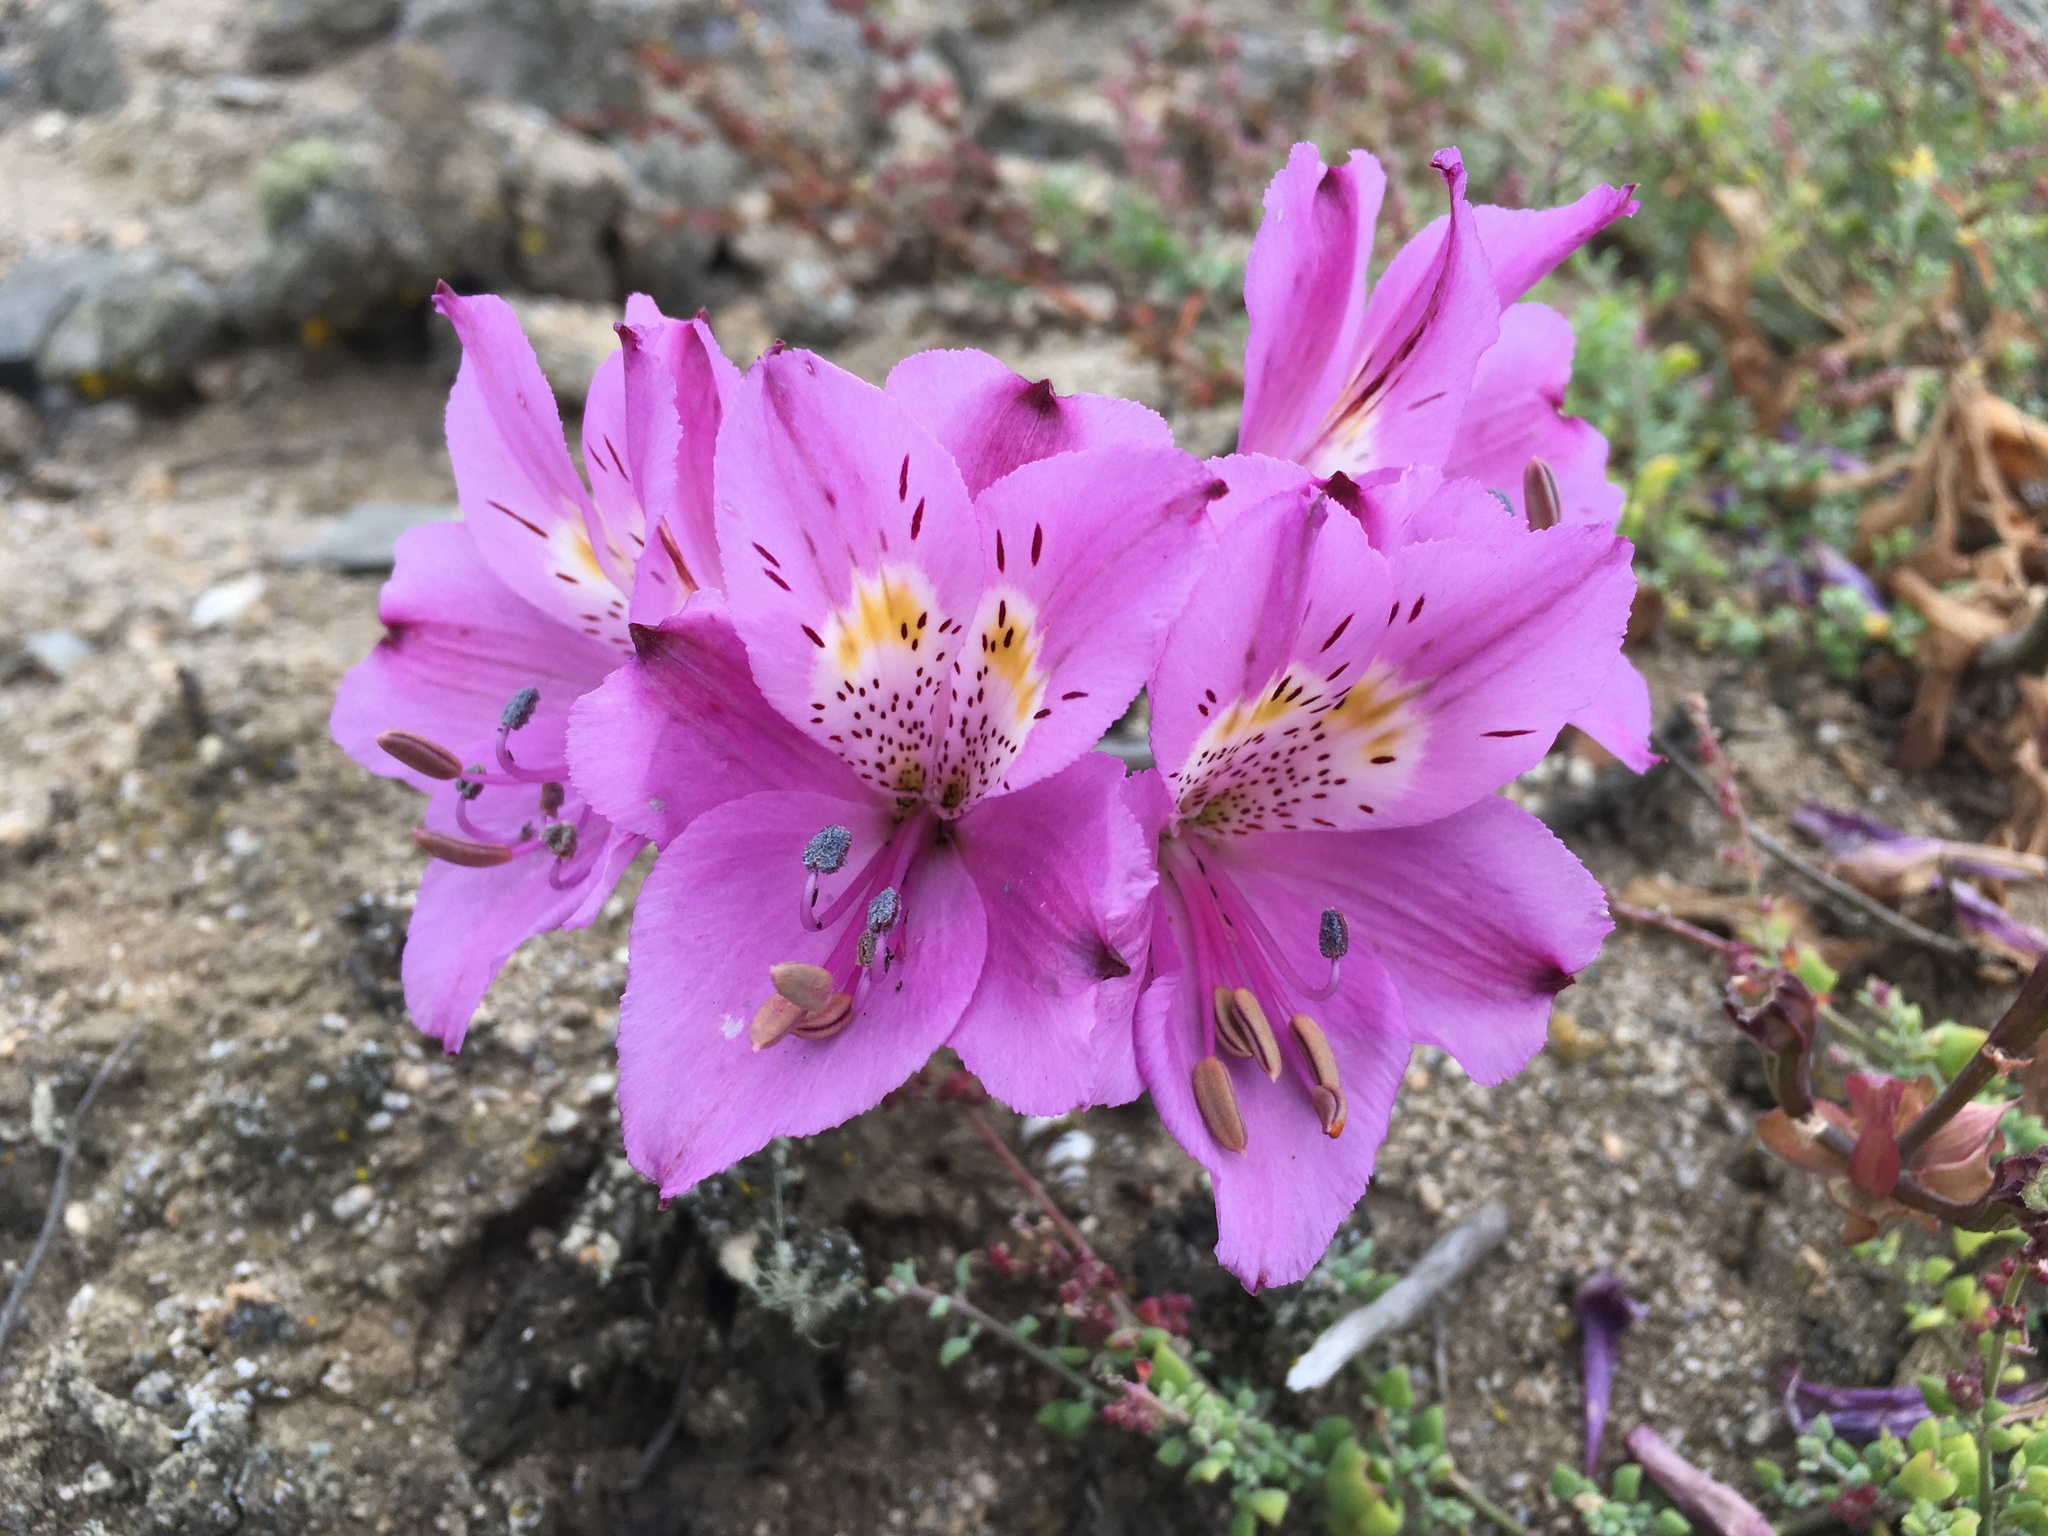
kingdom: Plantae
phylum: Tracheophyta
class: Liliopsida
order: Liliales
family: Alstroemeriaceae
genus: Alstroemeria
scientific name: Alstroemeria violacea
